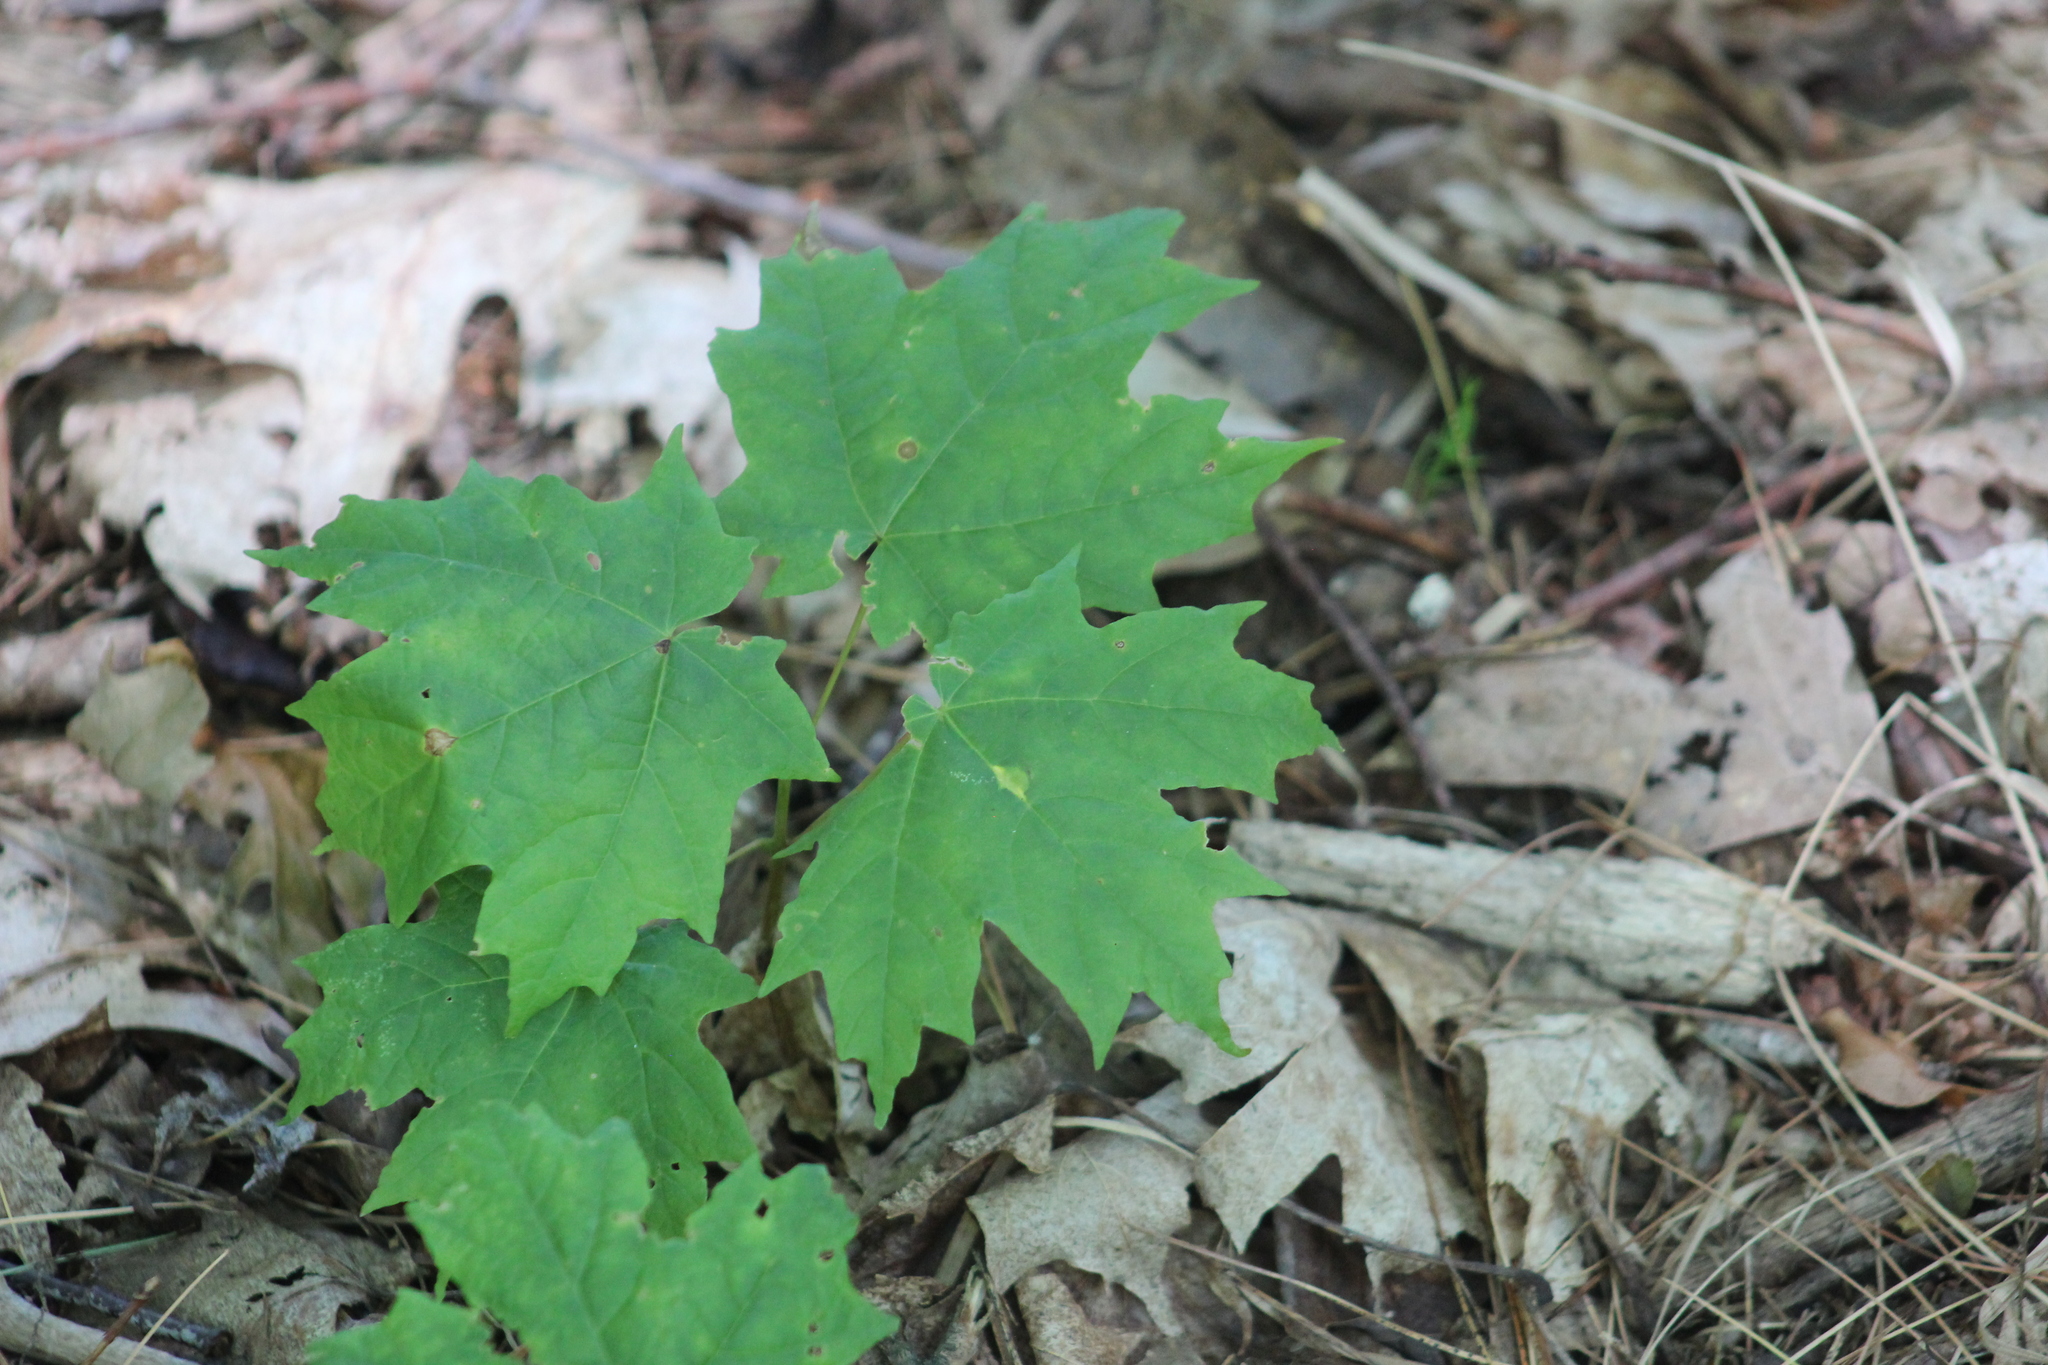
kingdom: Plantae
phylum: Tracheophyta
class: Magnoliopsida
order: Sapindales
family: Sapindaceae
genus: Acer
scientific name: Acer saccharum
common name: Sugar maple
